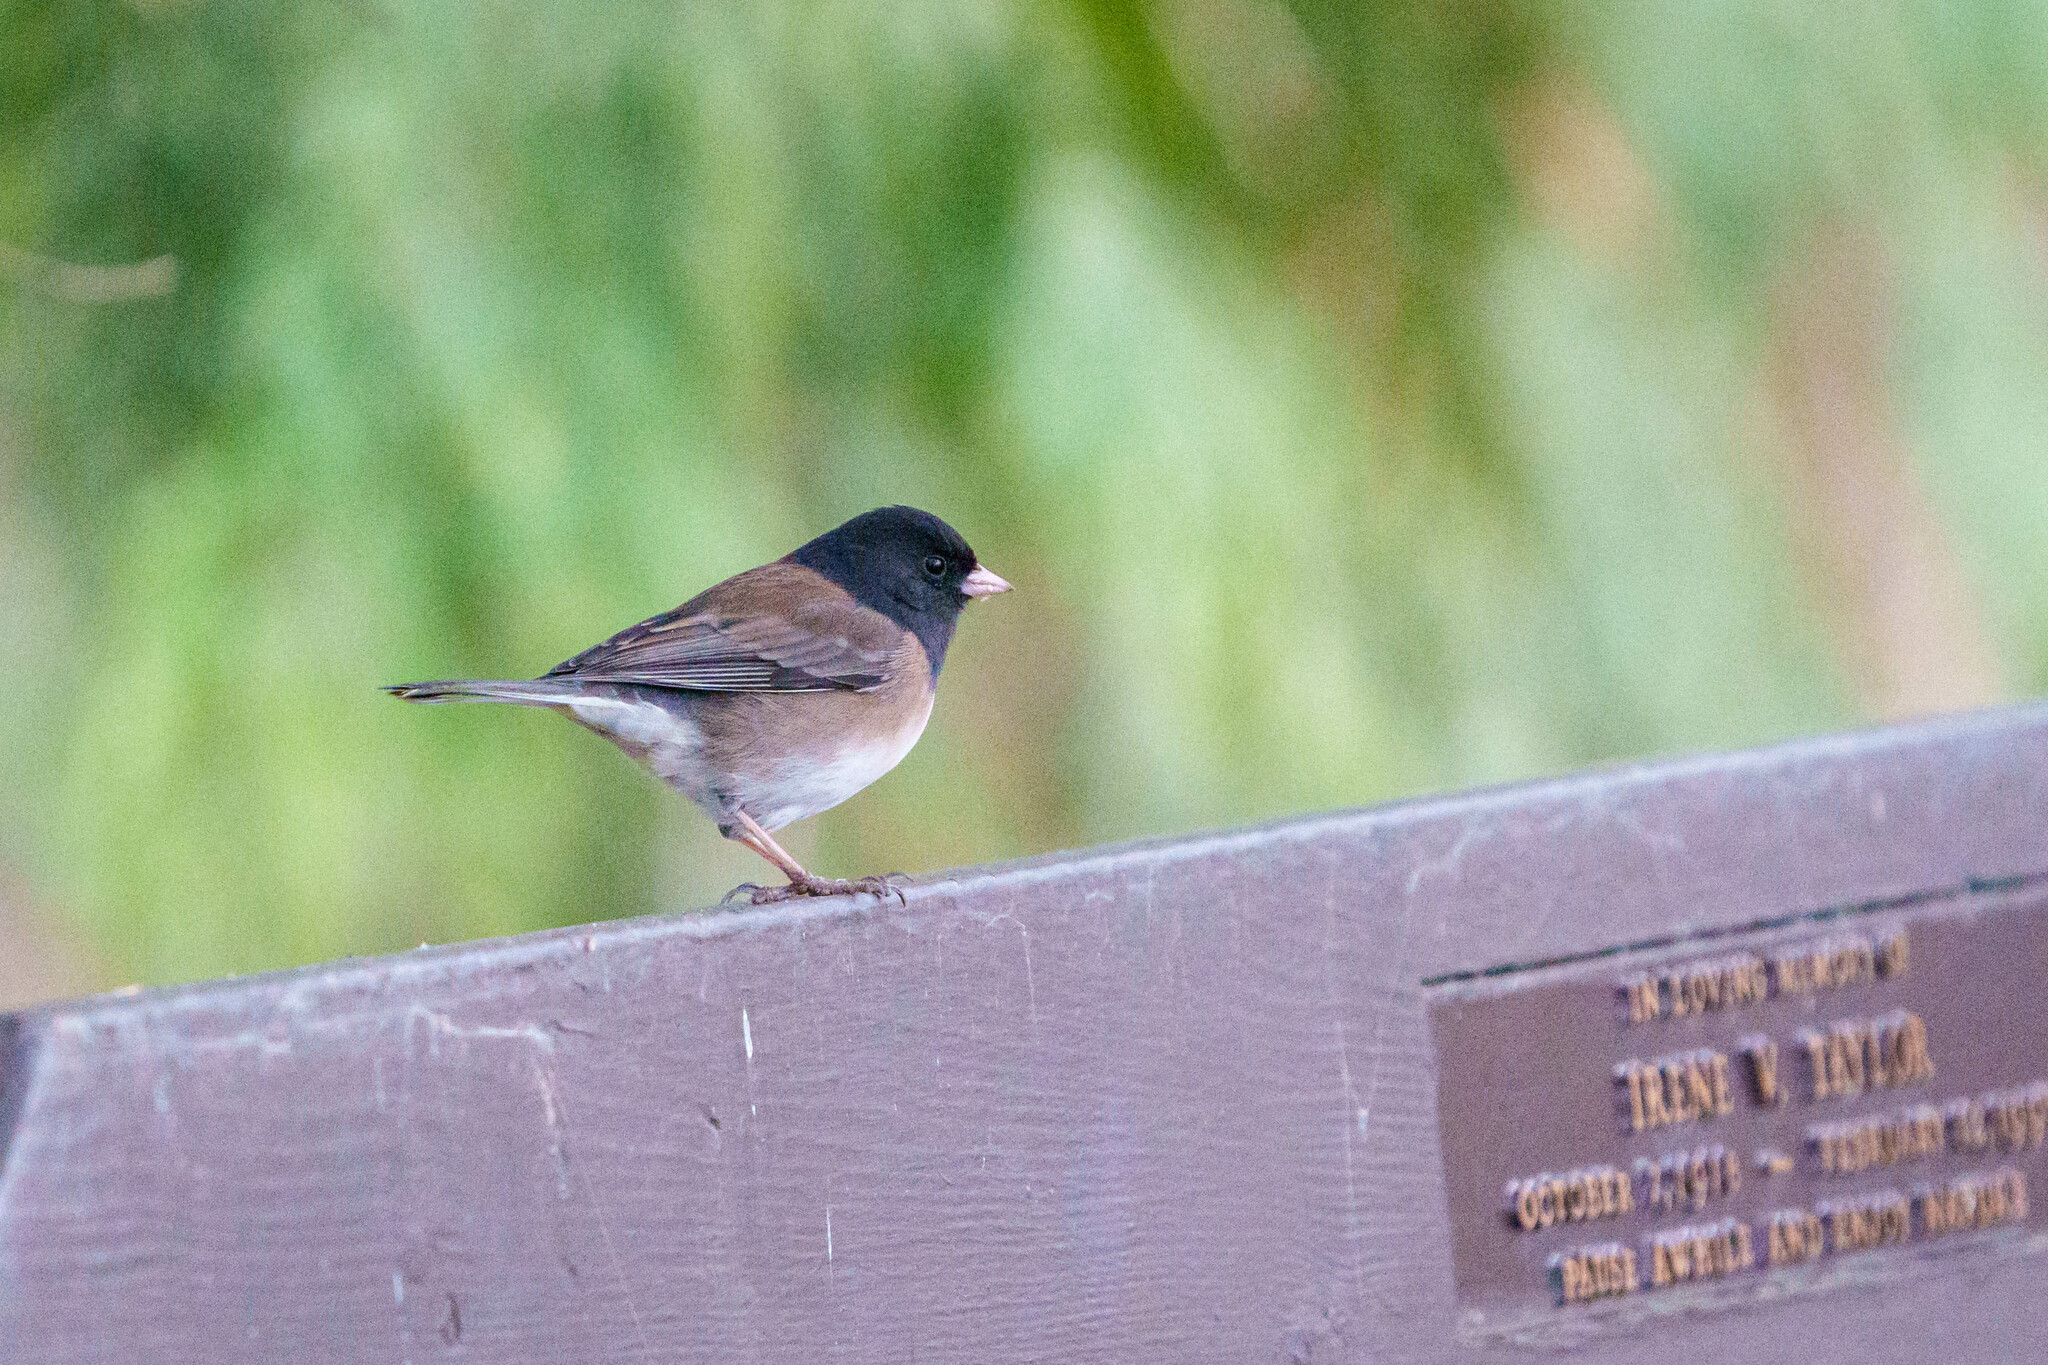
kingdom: Animalia
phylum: Chordata
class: Aves
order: Passeriformes
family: Passerellidae
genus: Junco
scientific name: Junco hyemalis
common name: Dark-eyed junco
